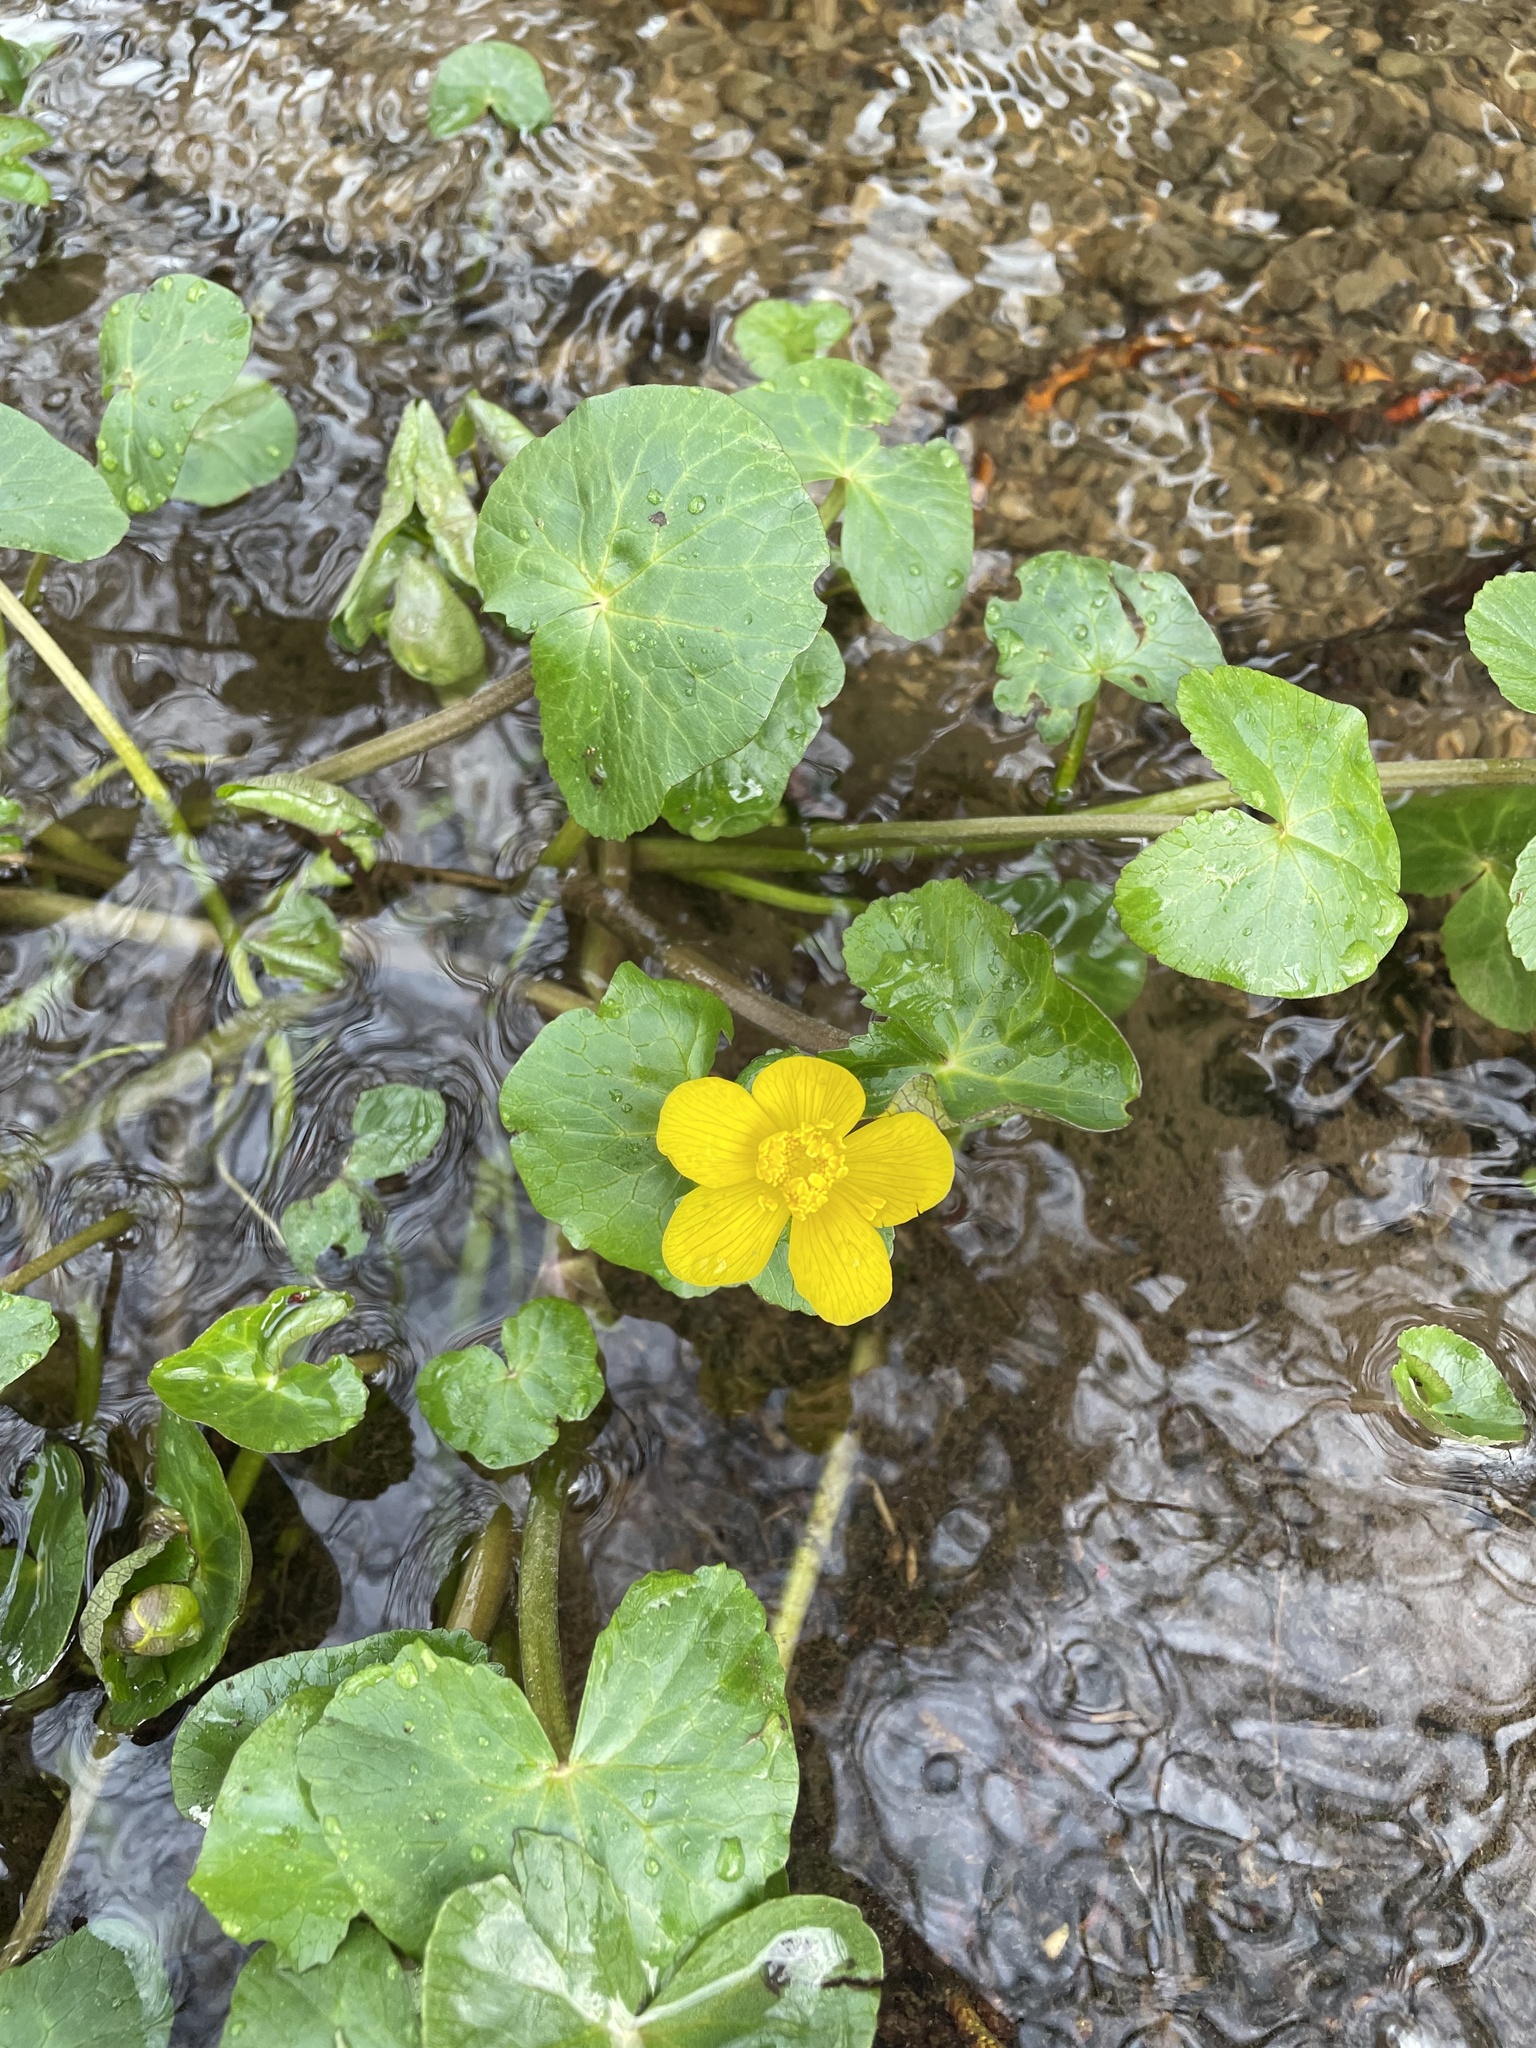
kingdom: Plantae
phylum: Tracheophyta
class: Magnoliopsida
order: Ranunculales
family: Ranunculaceae
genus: Caltha
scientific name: Caltha palustris
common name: Marsh marigold
